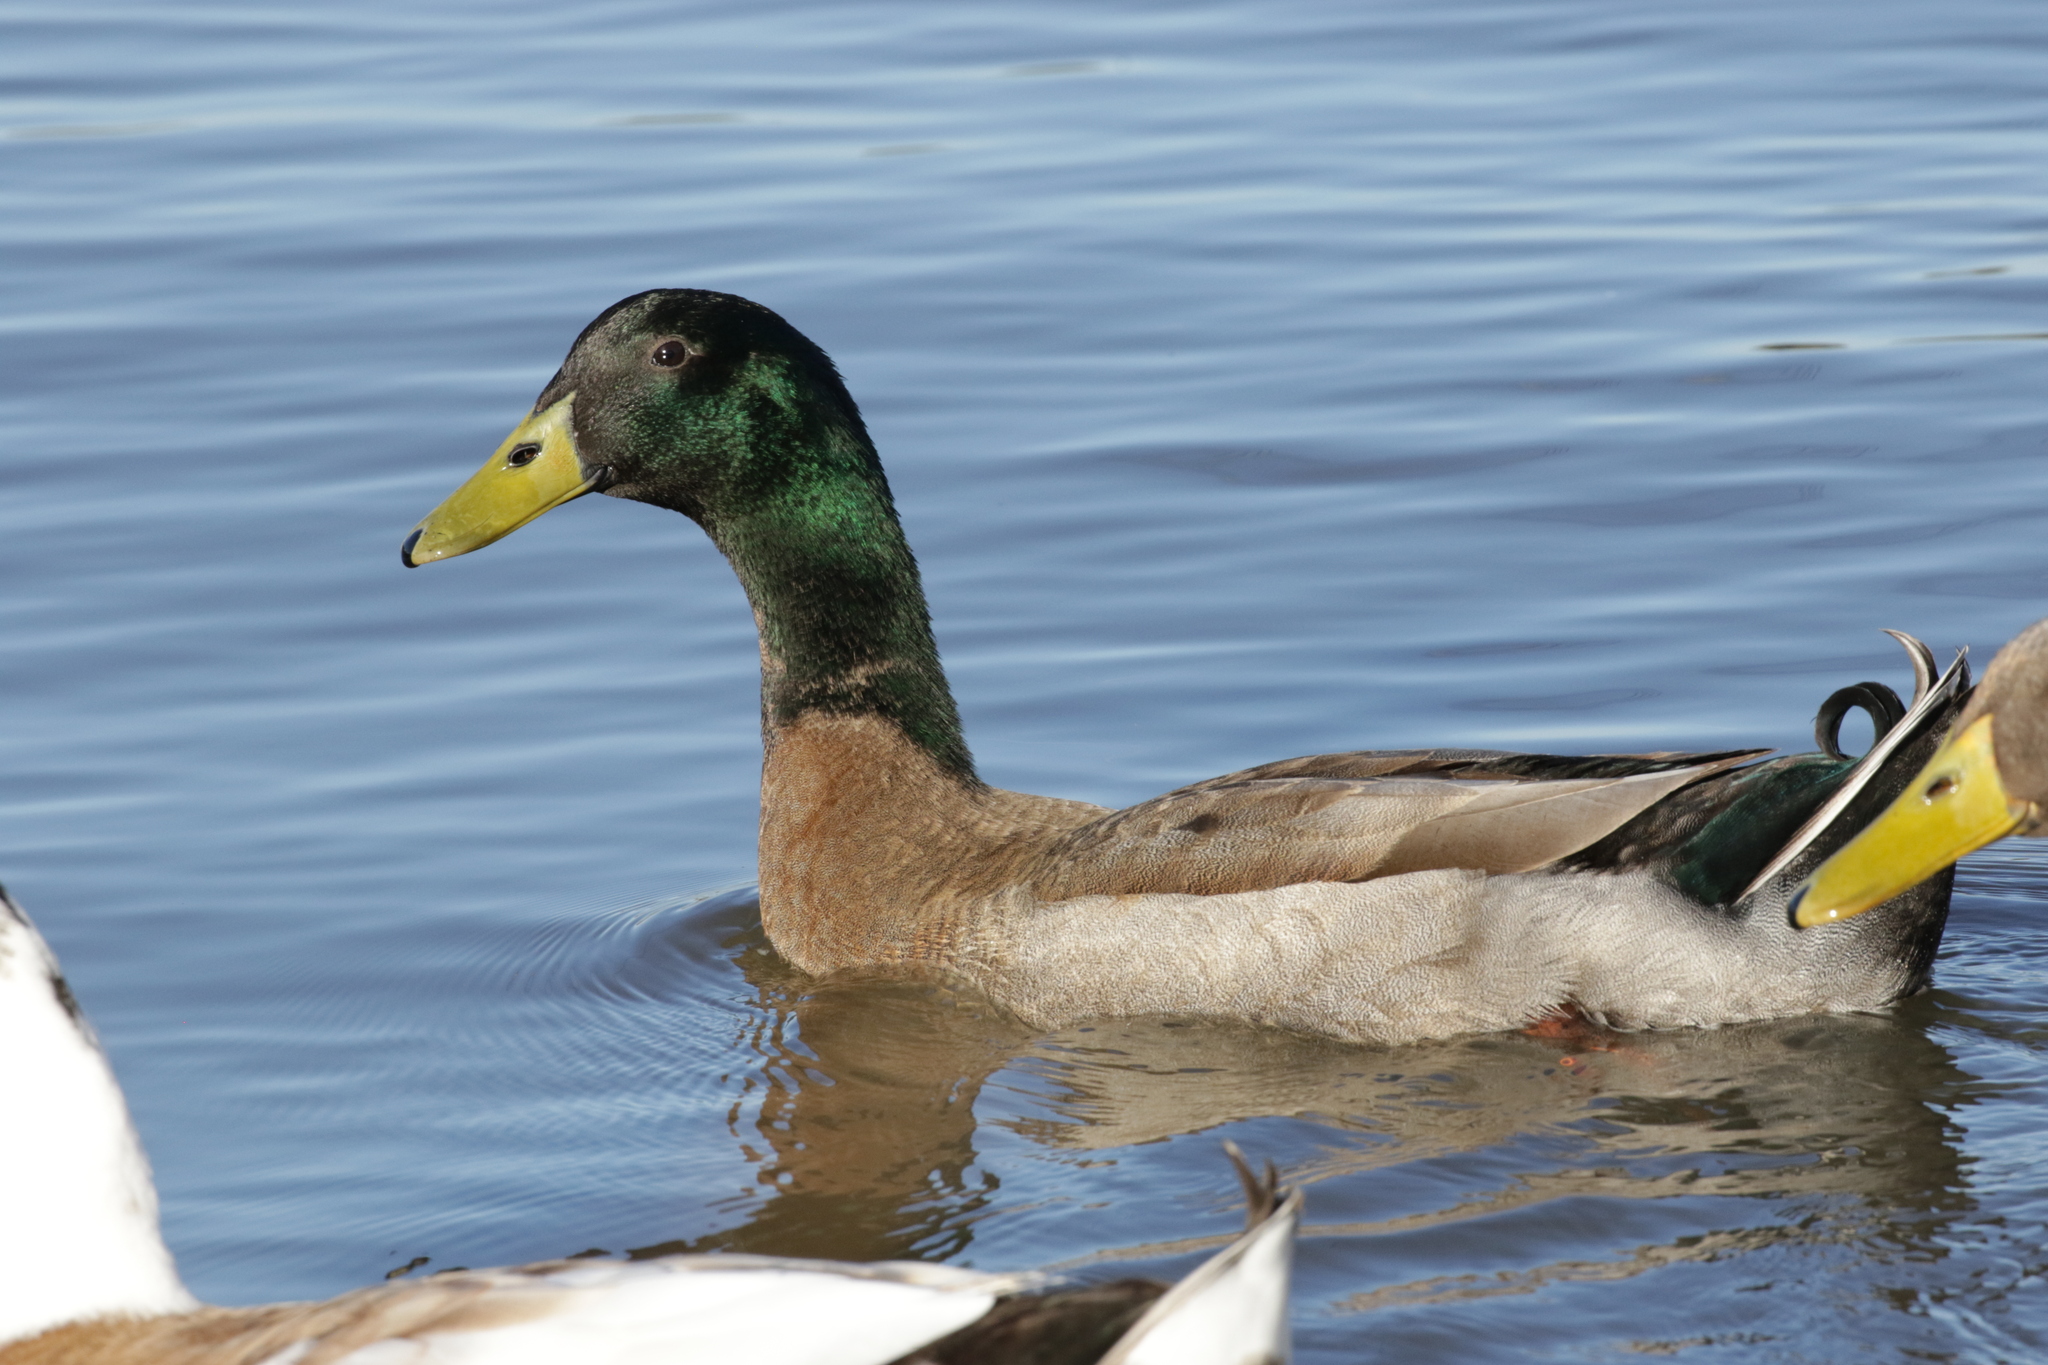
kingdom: Animalia
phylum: Chordata
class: Aves
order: Anseriformes
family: Anatidae
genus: Anas
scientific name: Anas platyrhynchos
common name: Mallard
